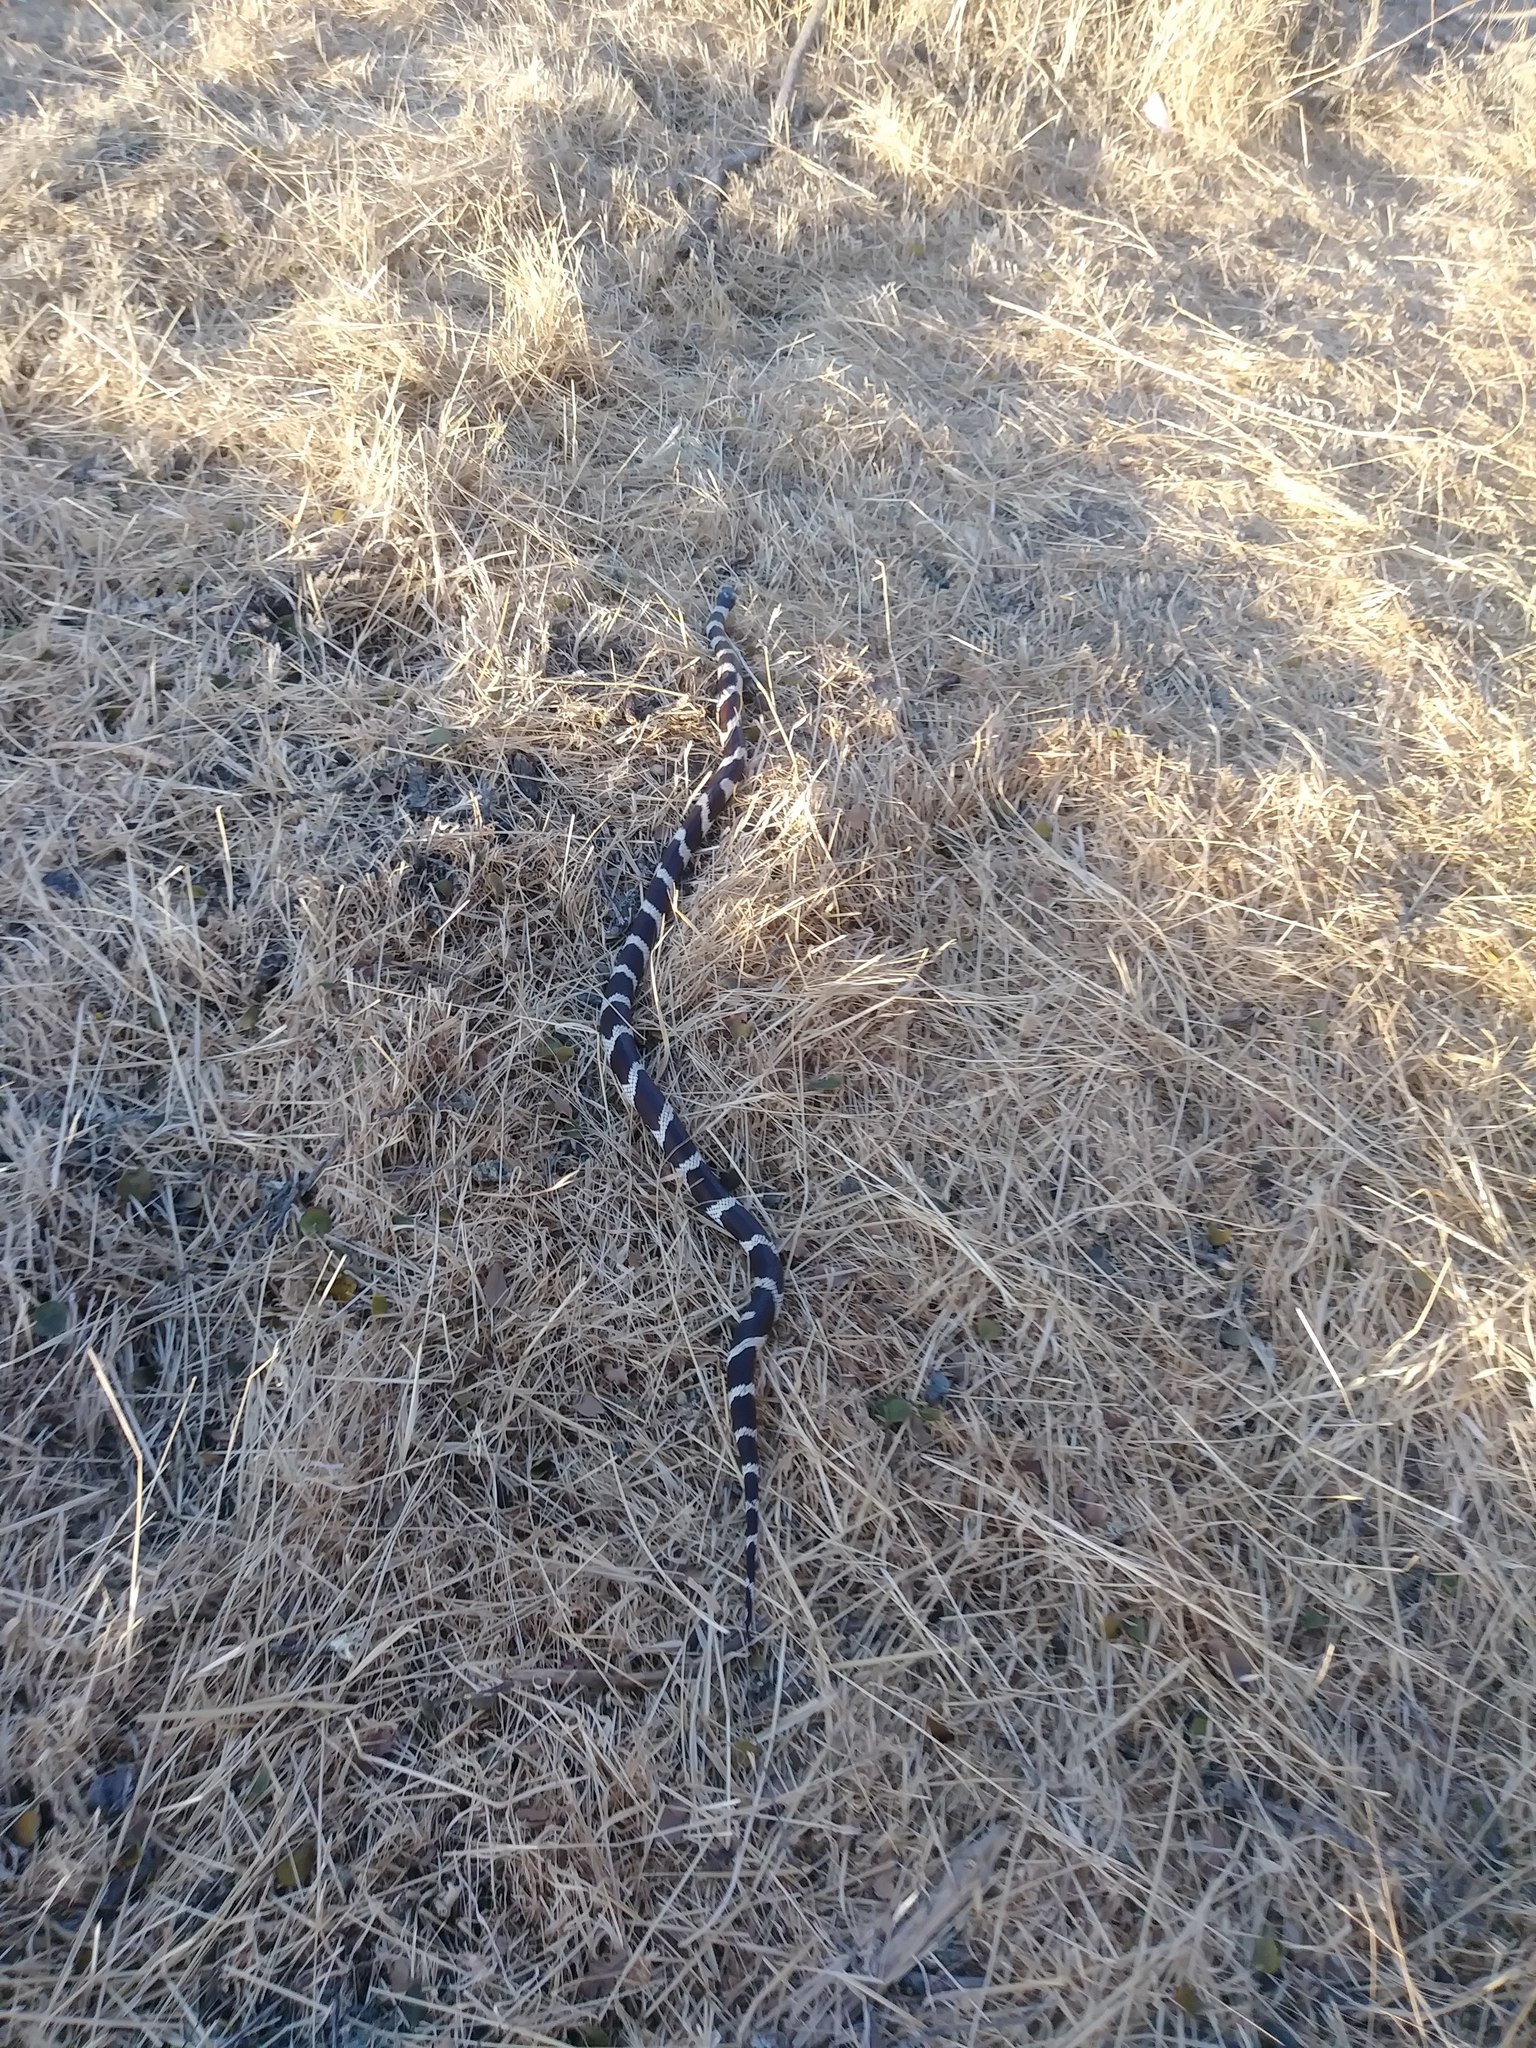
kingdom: Animalia
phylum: Chordata
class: Squamata
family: Colubridae
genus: Lampropeltis
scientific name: Lampropeltis californiae
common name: California kingsnake
